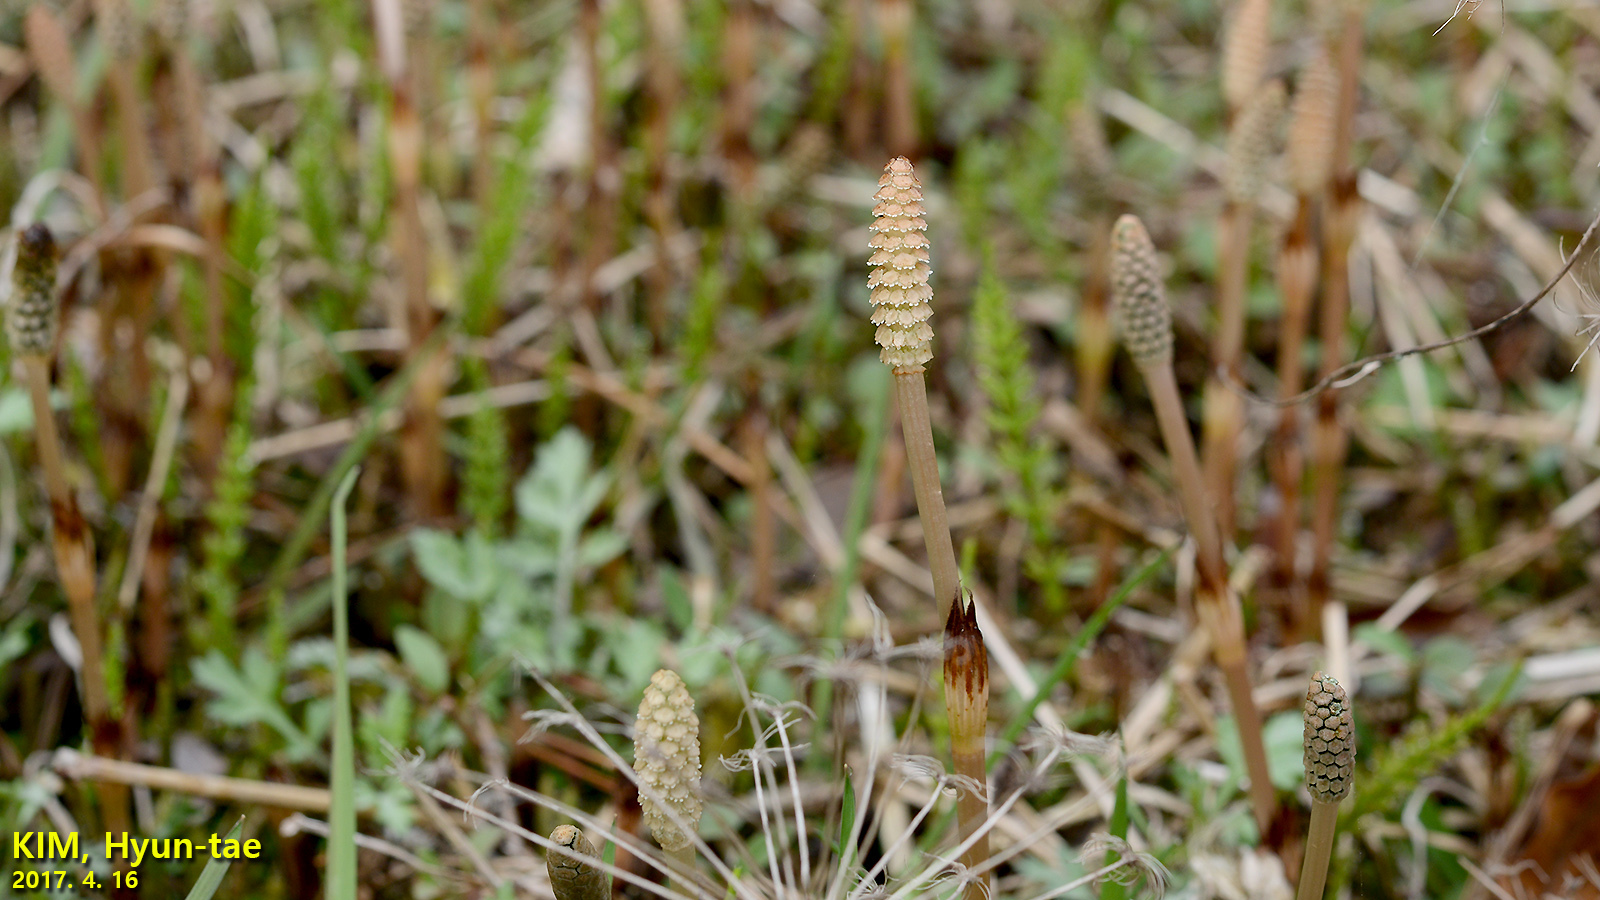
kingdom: Plantae
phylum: Tracheophyta
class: Polypodiopsida
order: Equisetales
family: Equisetaceae
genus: Equisetum
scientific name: Equisetum arvense
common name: Field horsetail
